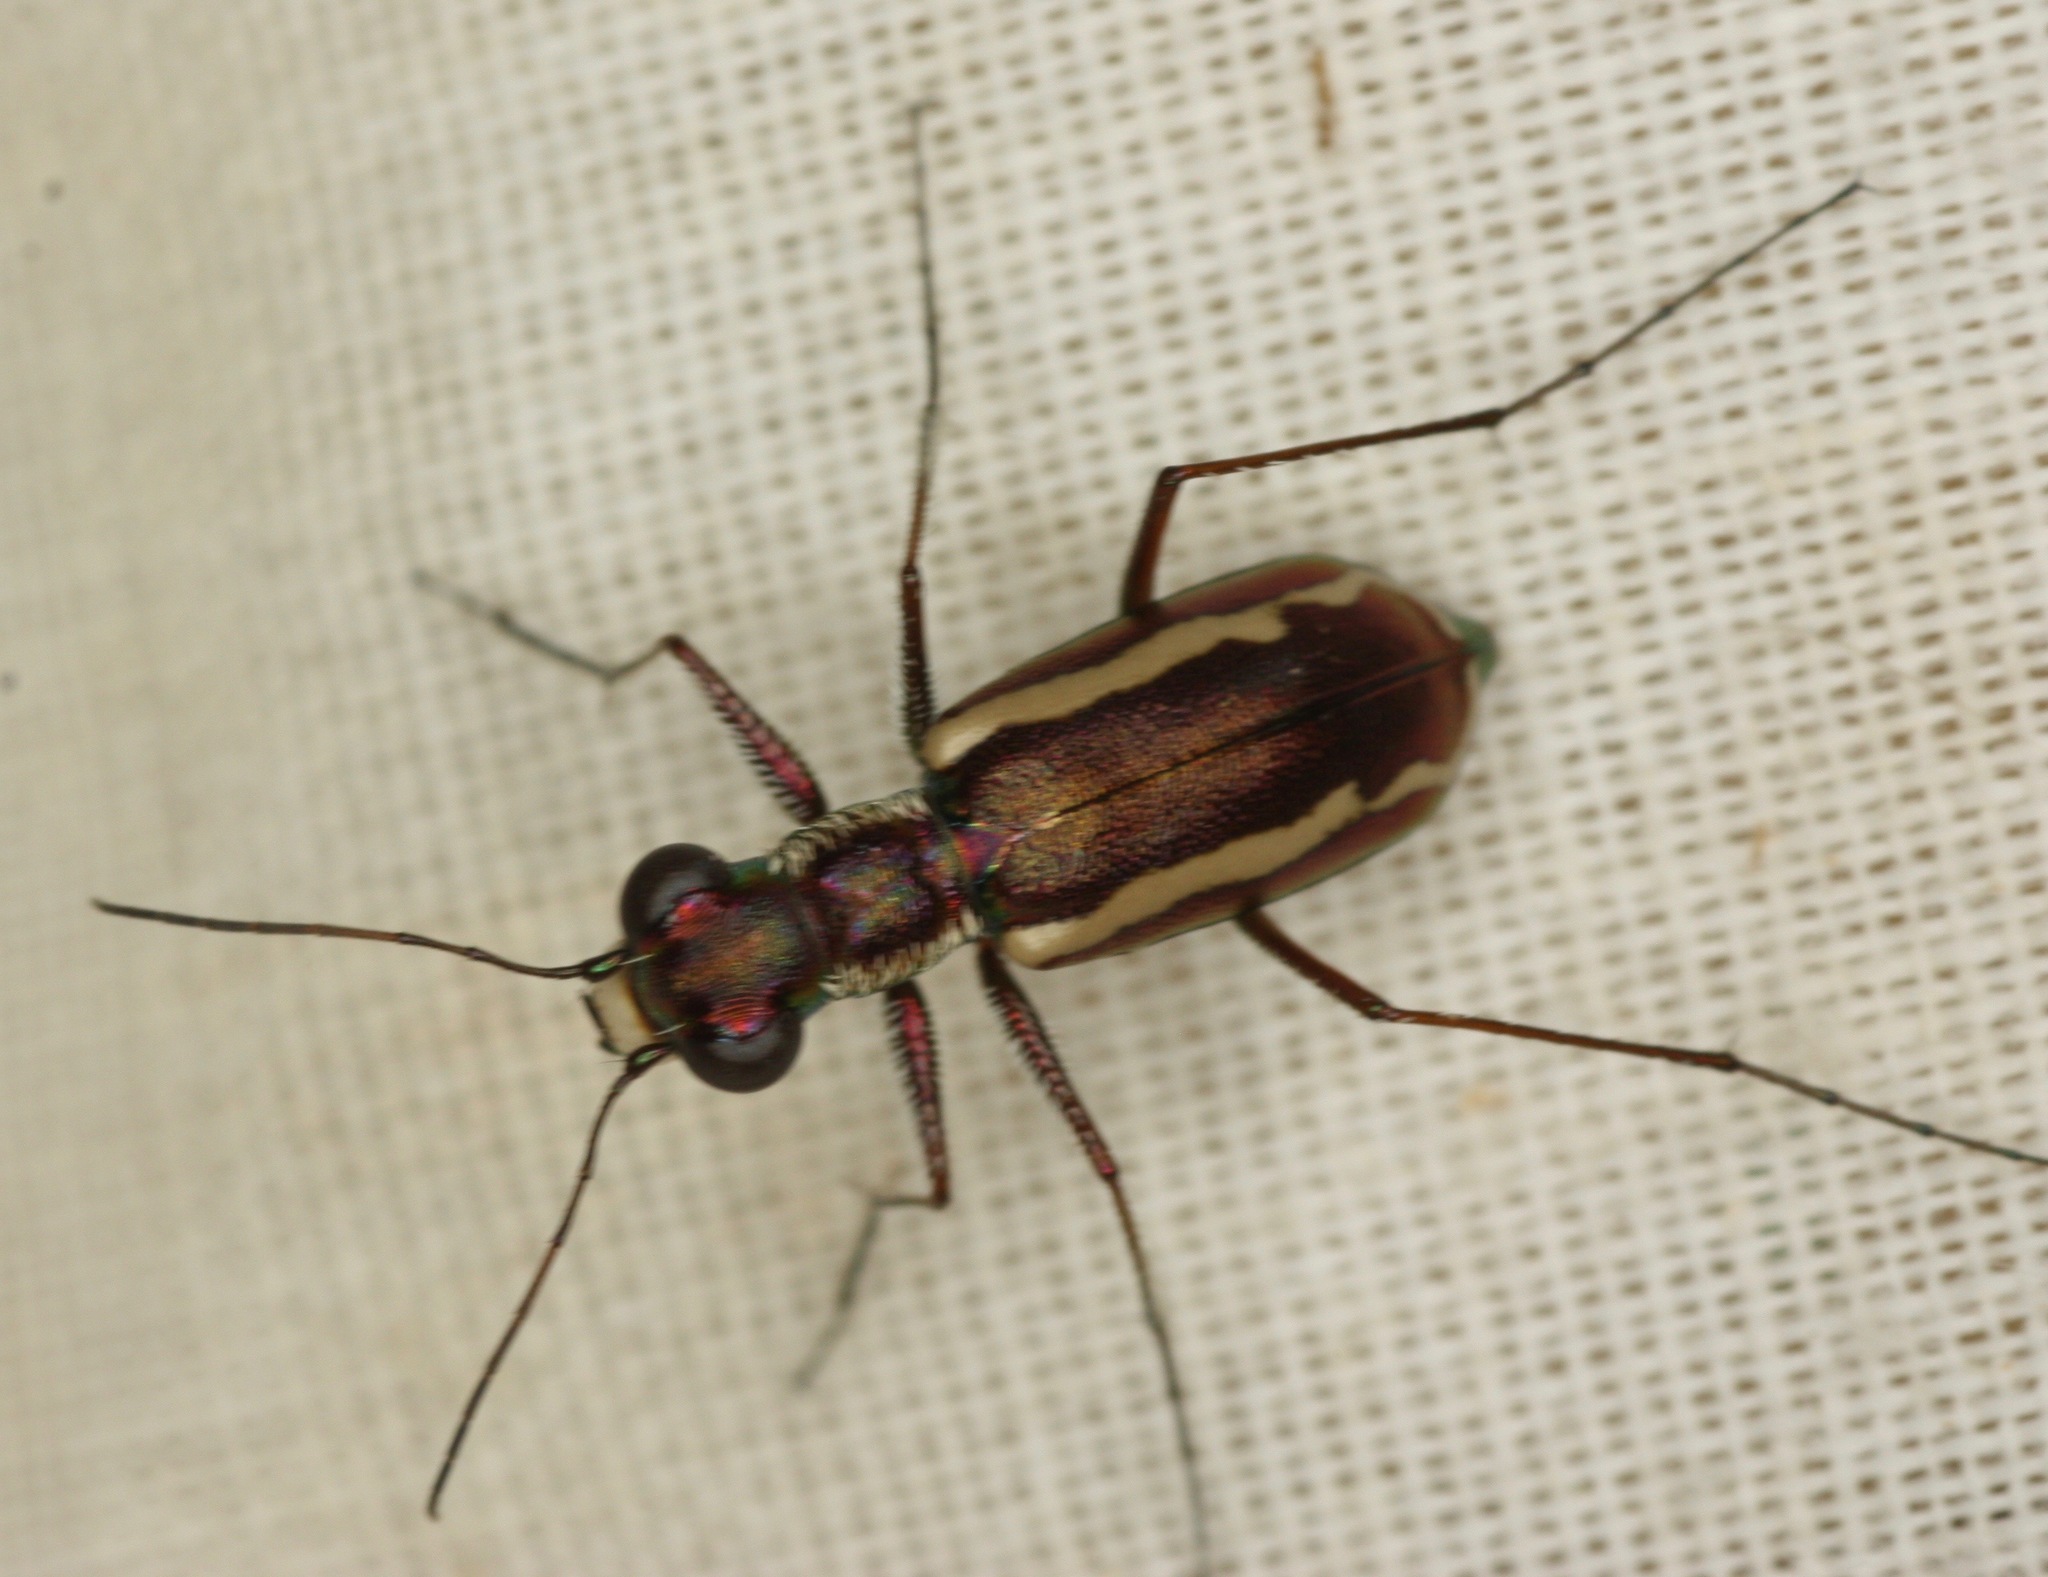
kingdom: Animalia
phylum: Arthropoda
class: Insecta
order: Coleoptera
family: Carabidae
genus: Cylindera
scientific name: Cylindera lemniscata
